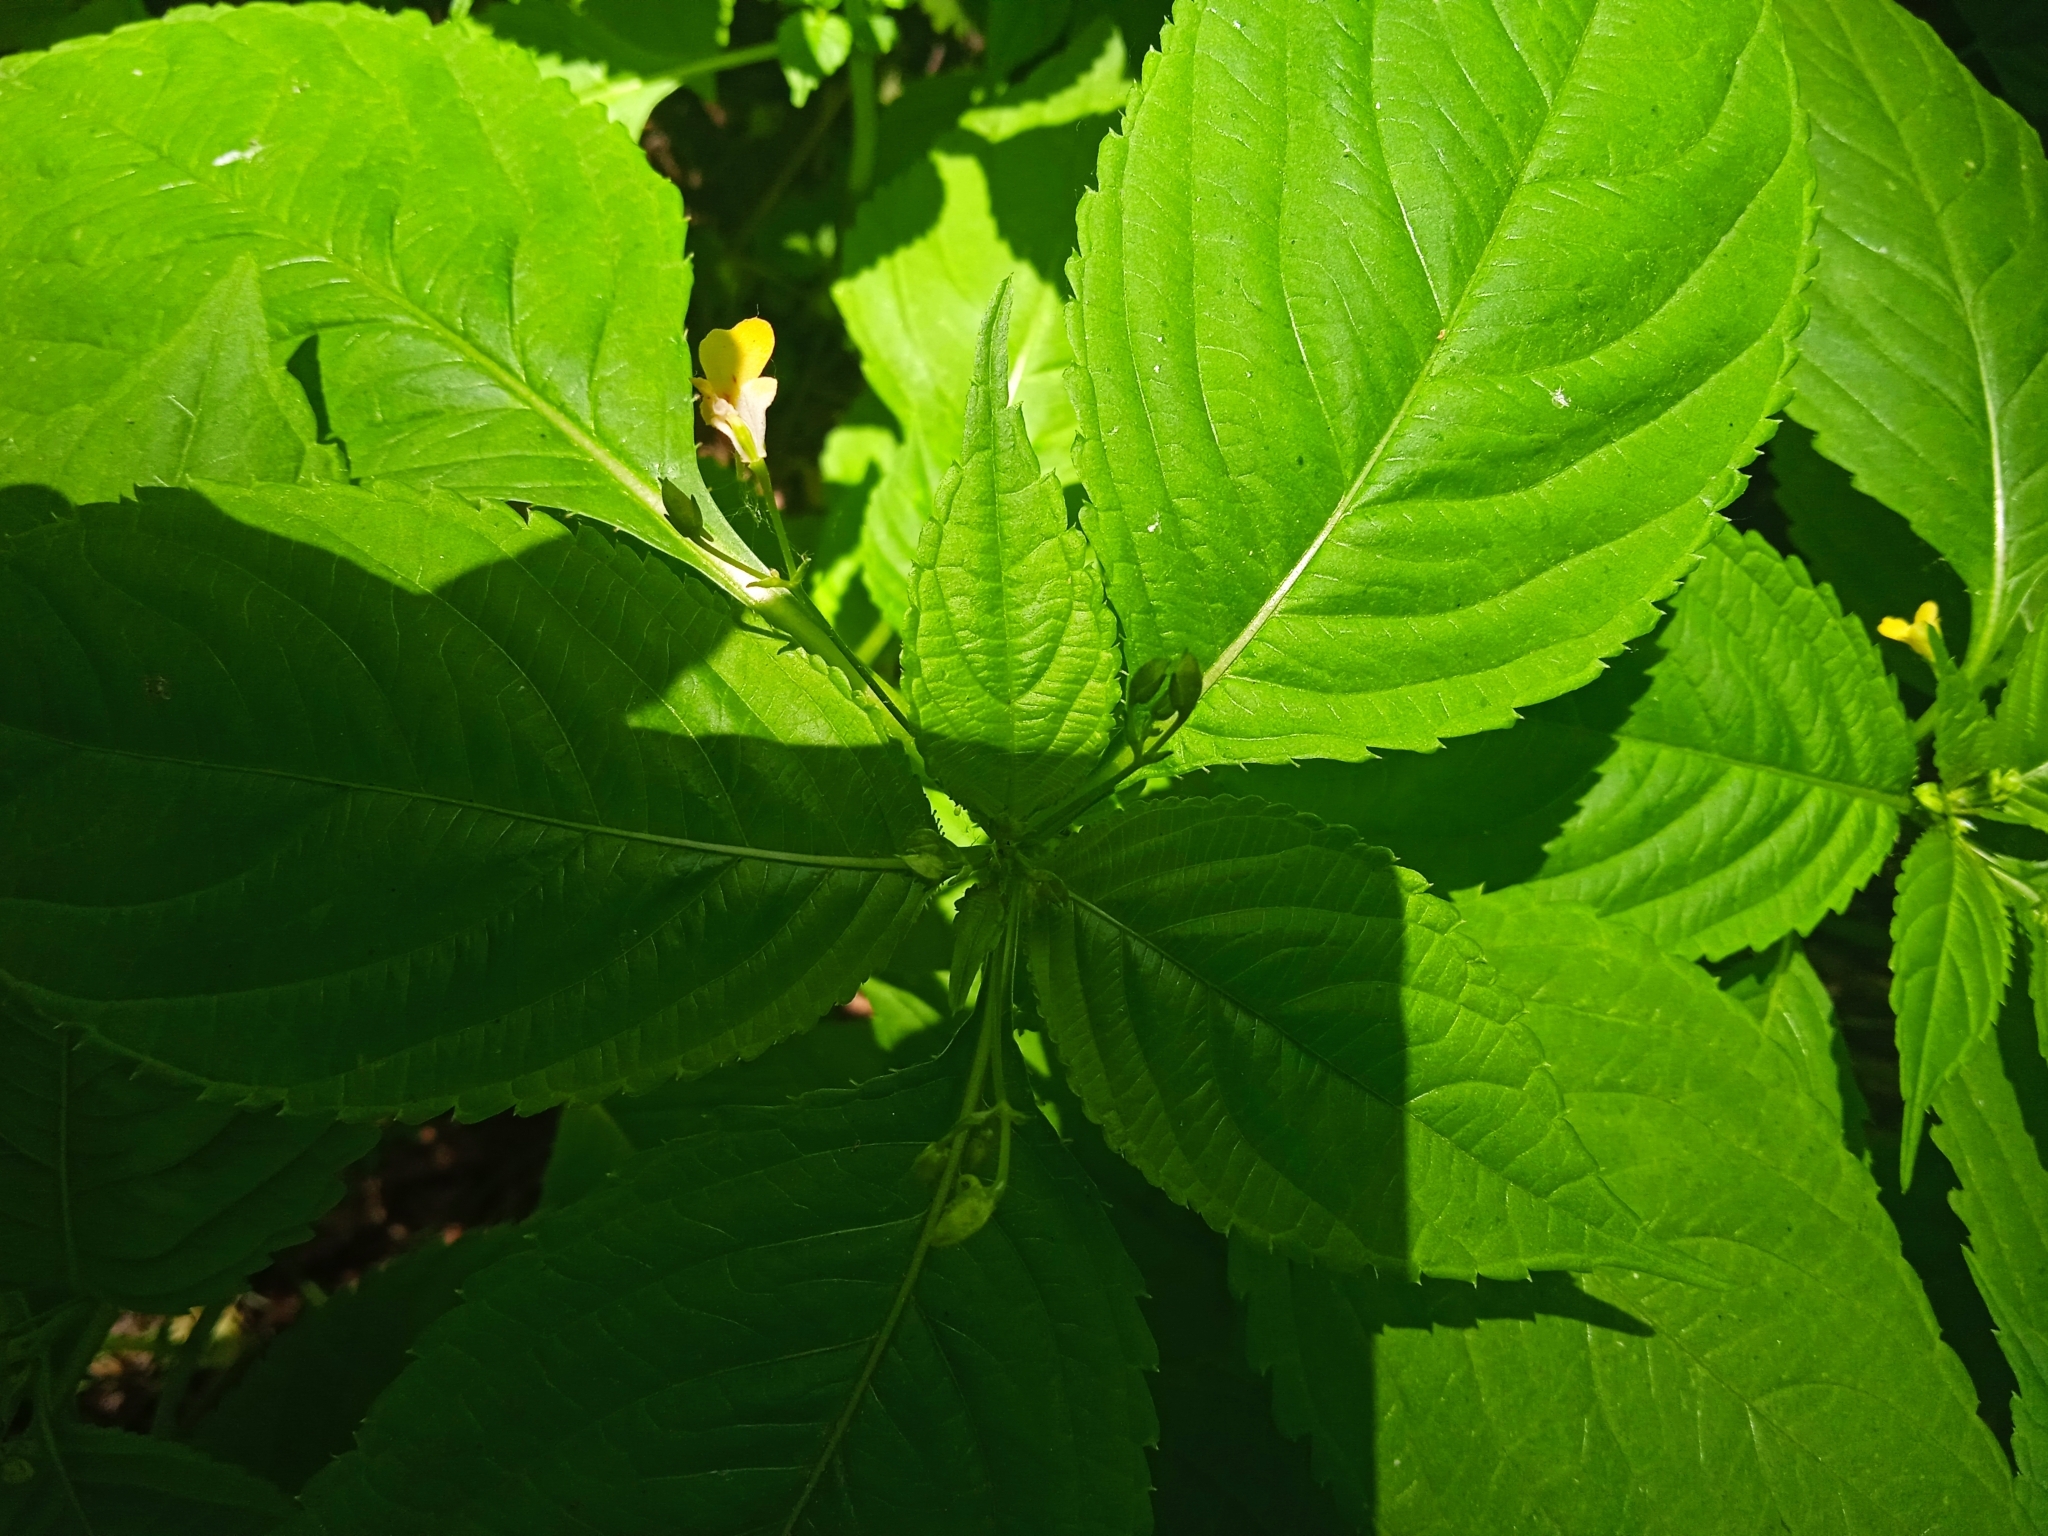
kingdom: Plantae
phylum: Tracheophyta
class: Magnoliopsida
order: Ericales
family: Balsaminaceae
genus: Impatiens
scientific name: Impatiens parviflora
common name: Small balsam
